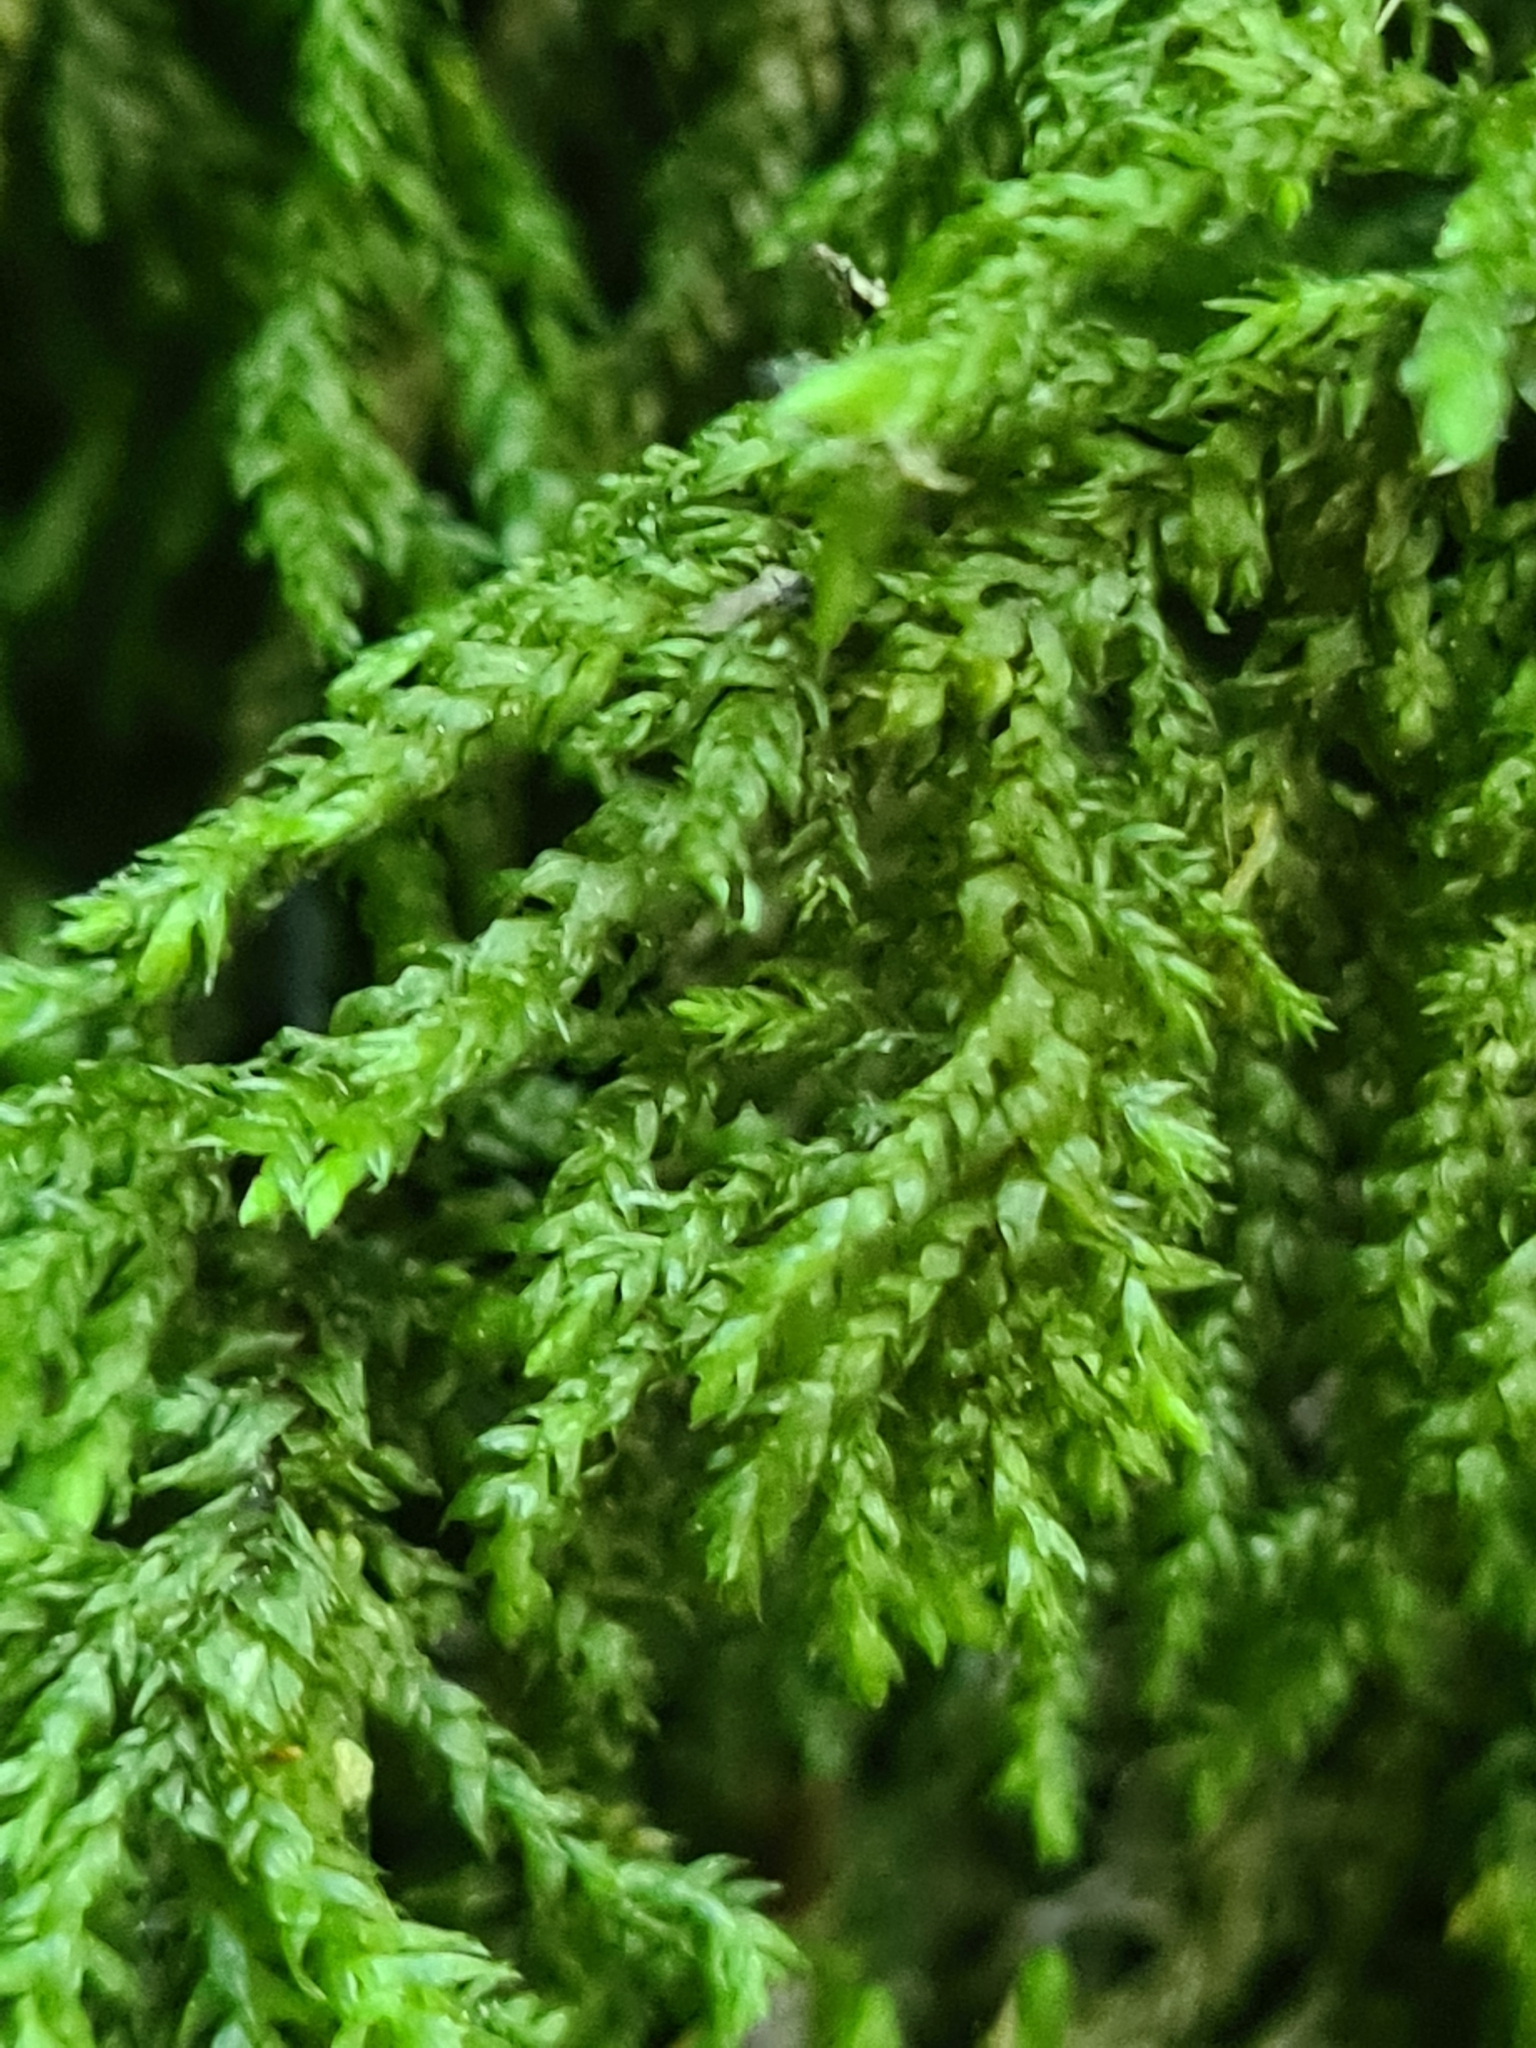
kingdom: Plantae
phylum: Bryophyta
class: Bryopsida
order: Hypnales
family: Neckeraceae
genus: Thamnobryum
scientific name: Thamnobryum alopecurum
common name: Fox-tail feather-moss
